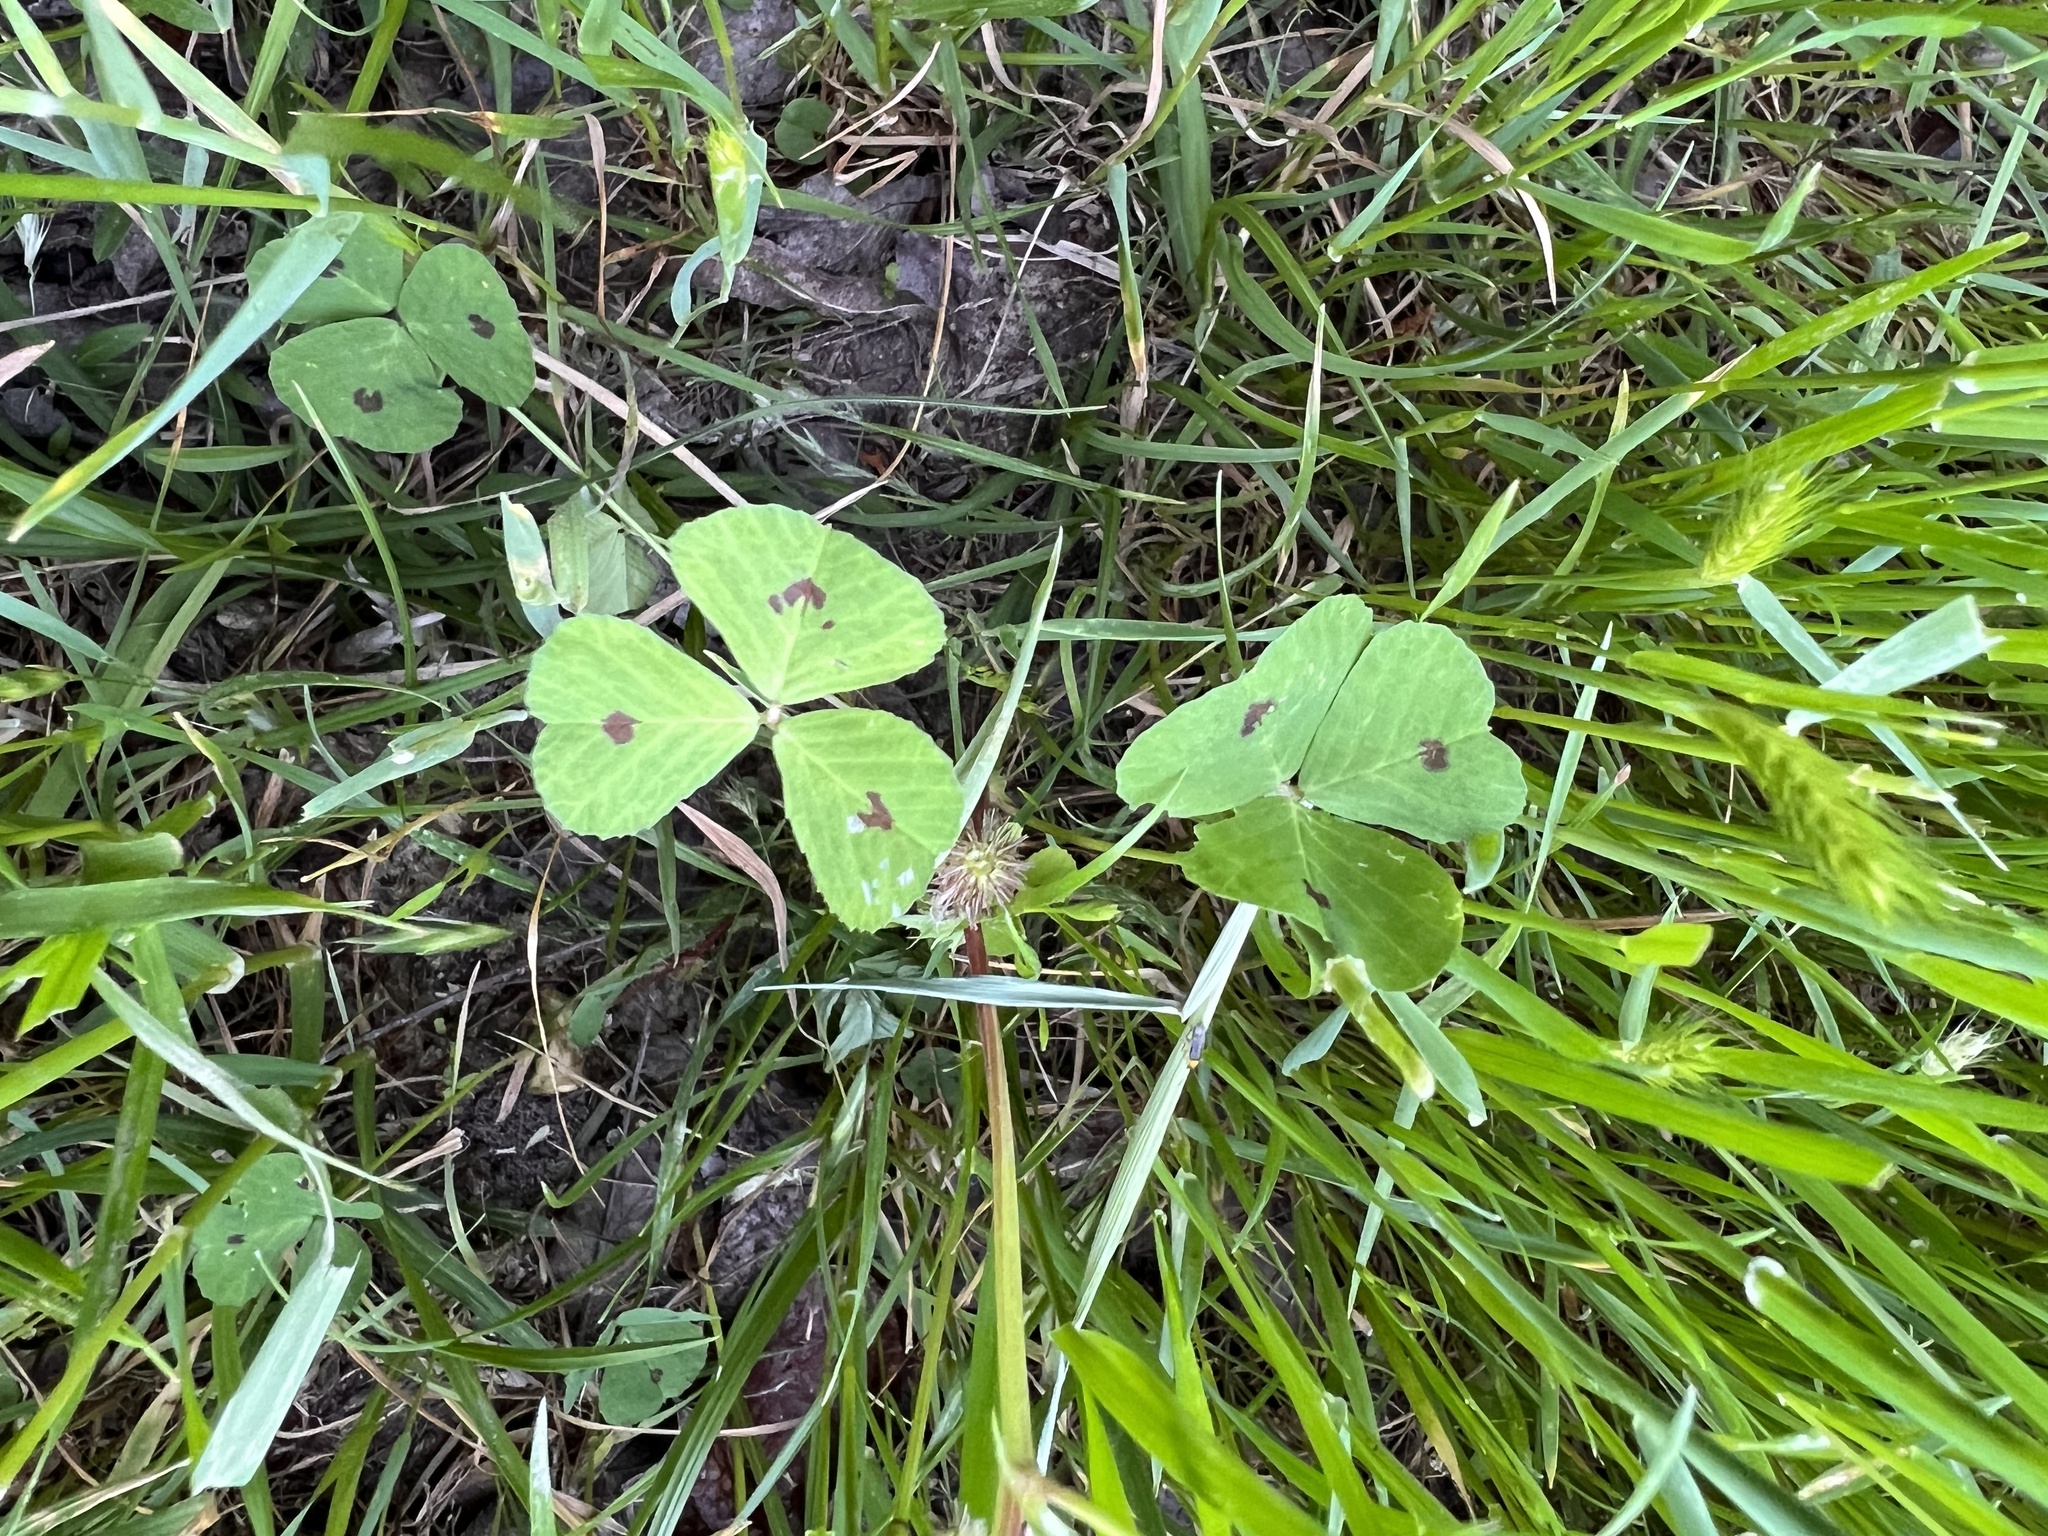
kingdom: Plantae
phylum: Tracheophyta
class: Magnoliopsida
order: Fabales
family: Fabaceae
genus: Medicago
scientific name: Medicago arabica
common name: Spotted medick
